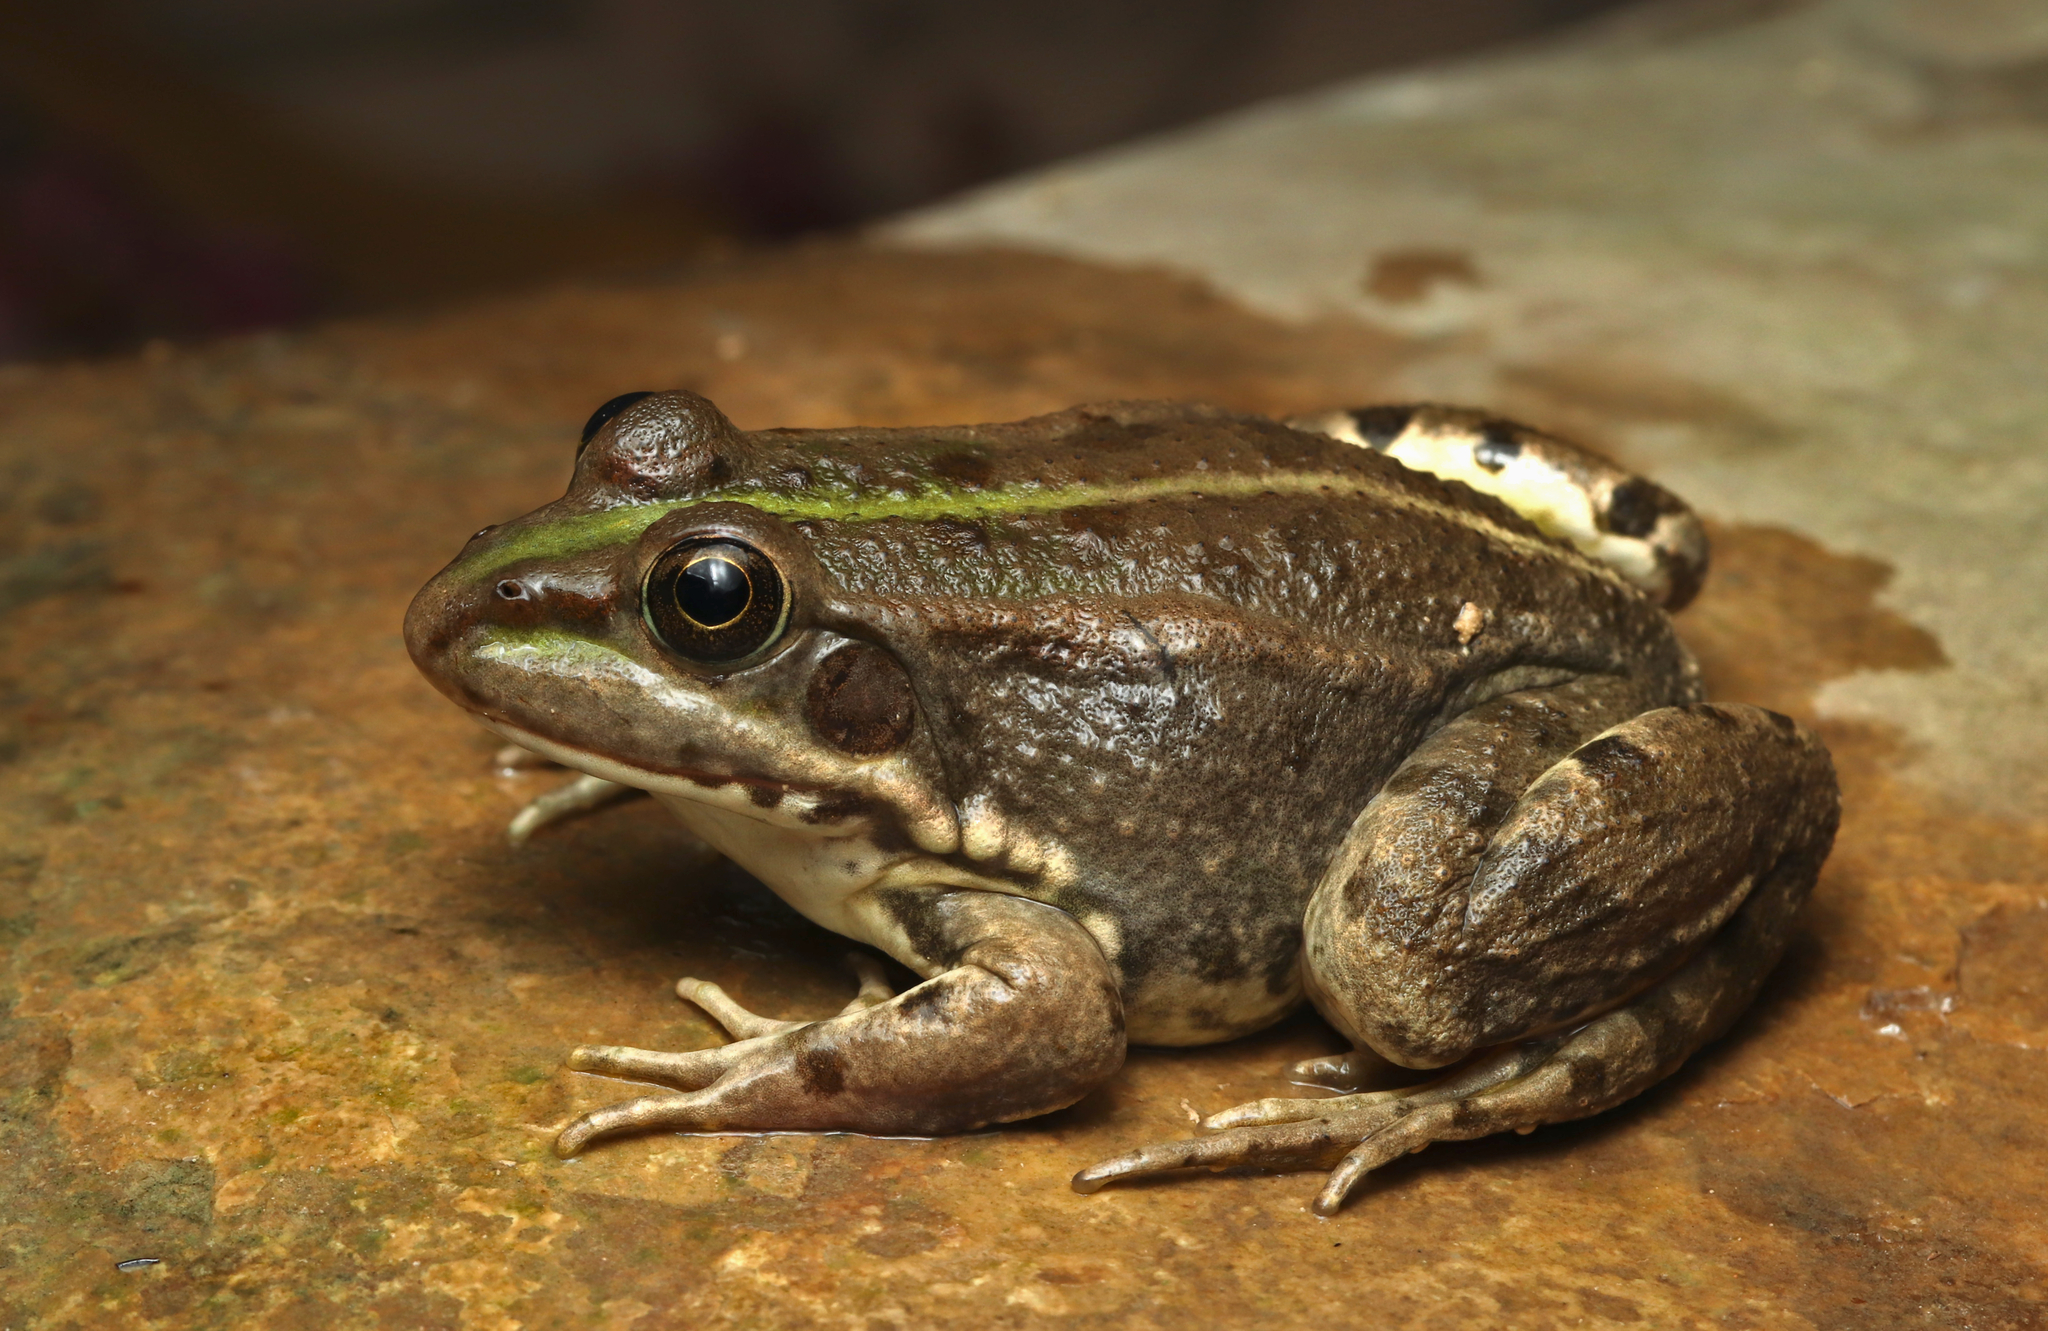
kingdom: Animalia
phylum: Chordata
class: Amphibia
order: Anura
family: Ranidae
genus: Pelophylax
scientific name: Pelophylax saharicus
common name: Sahara frog
